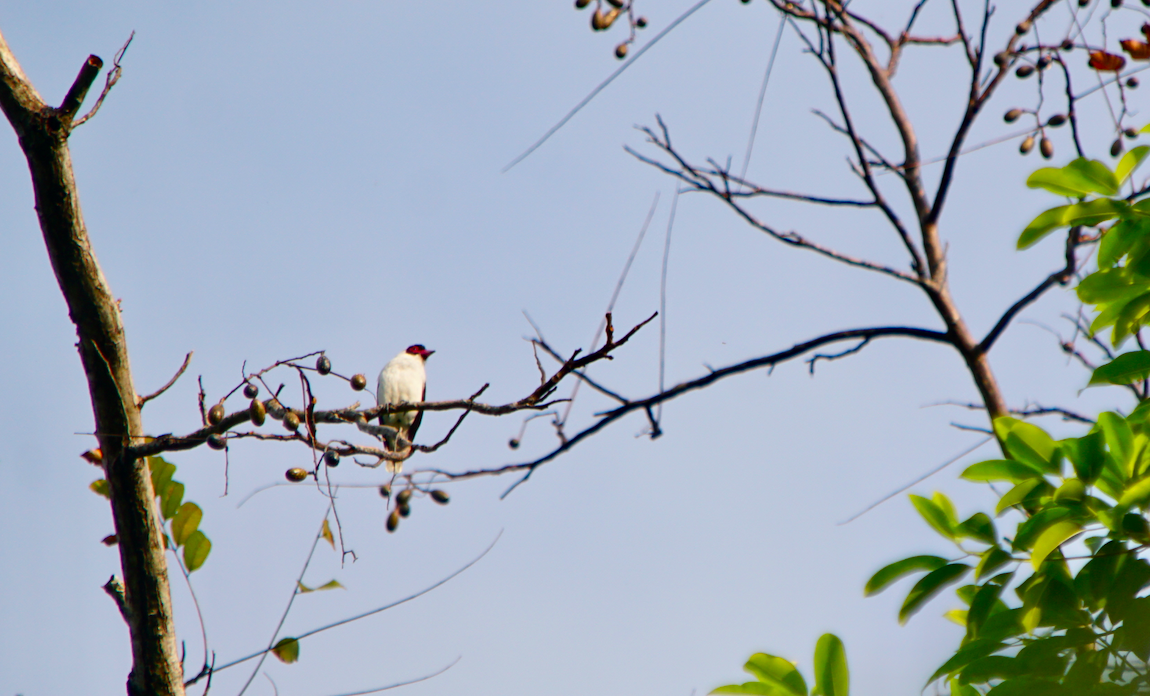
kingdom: Animalia
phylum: Chordata
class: Aves
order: Passeriformes
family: Cotingidae
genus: Tityra
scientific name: Tityra semifasciata
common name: Masked tityra
